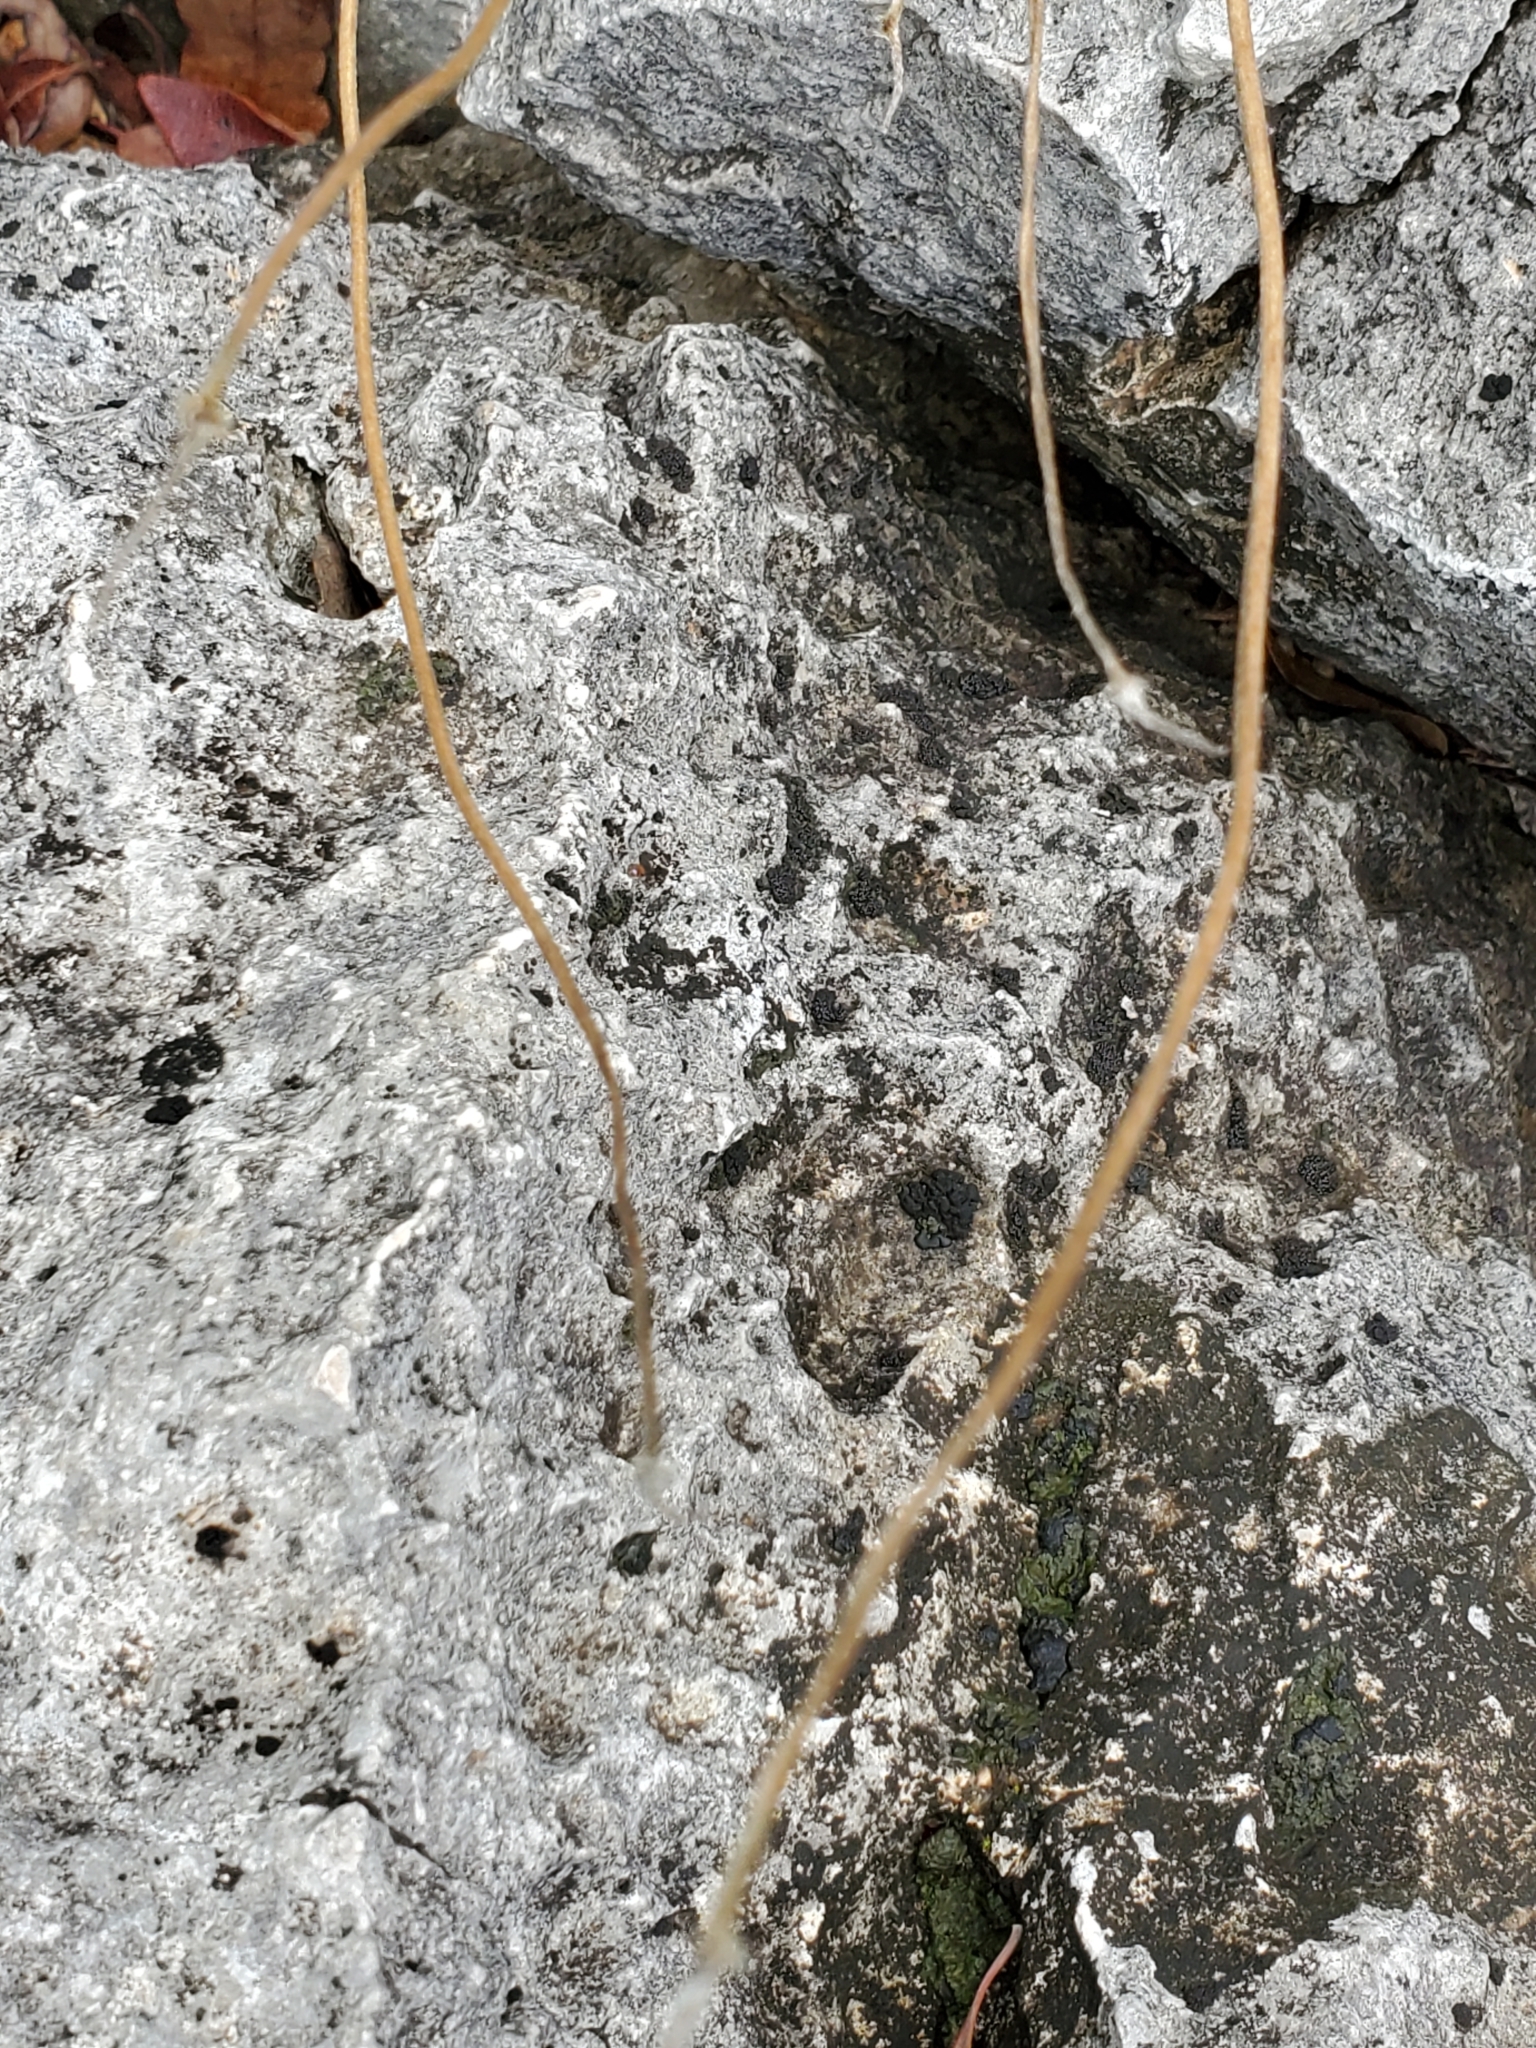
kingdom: Plantae
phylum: Tracheophyta
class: Magnoliopsida
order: Ranunculales
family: Ranunculaceae
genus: Anemone
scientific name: Anemone edwardsiana
